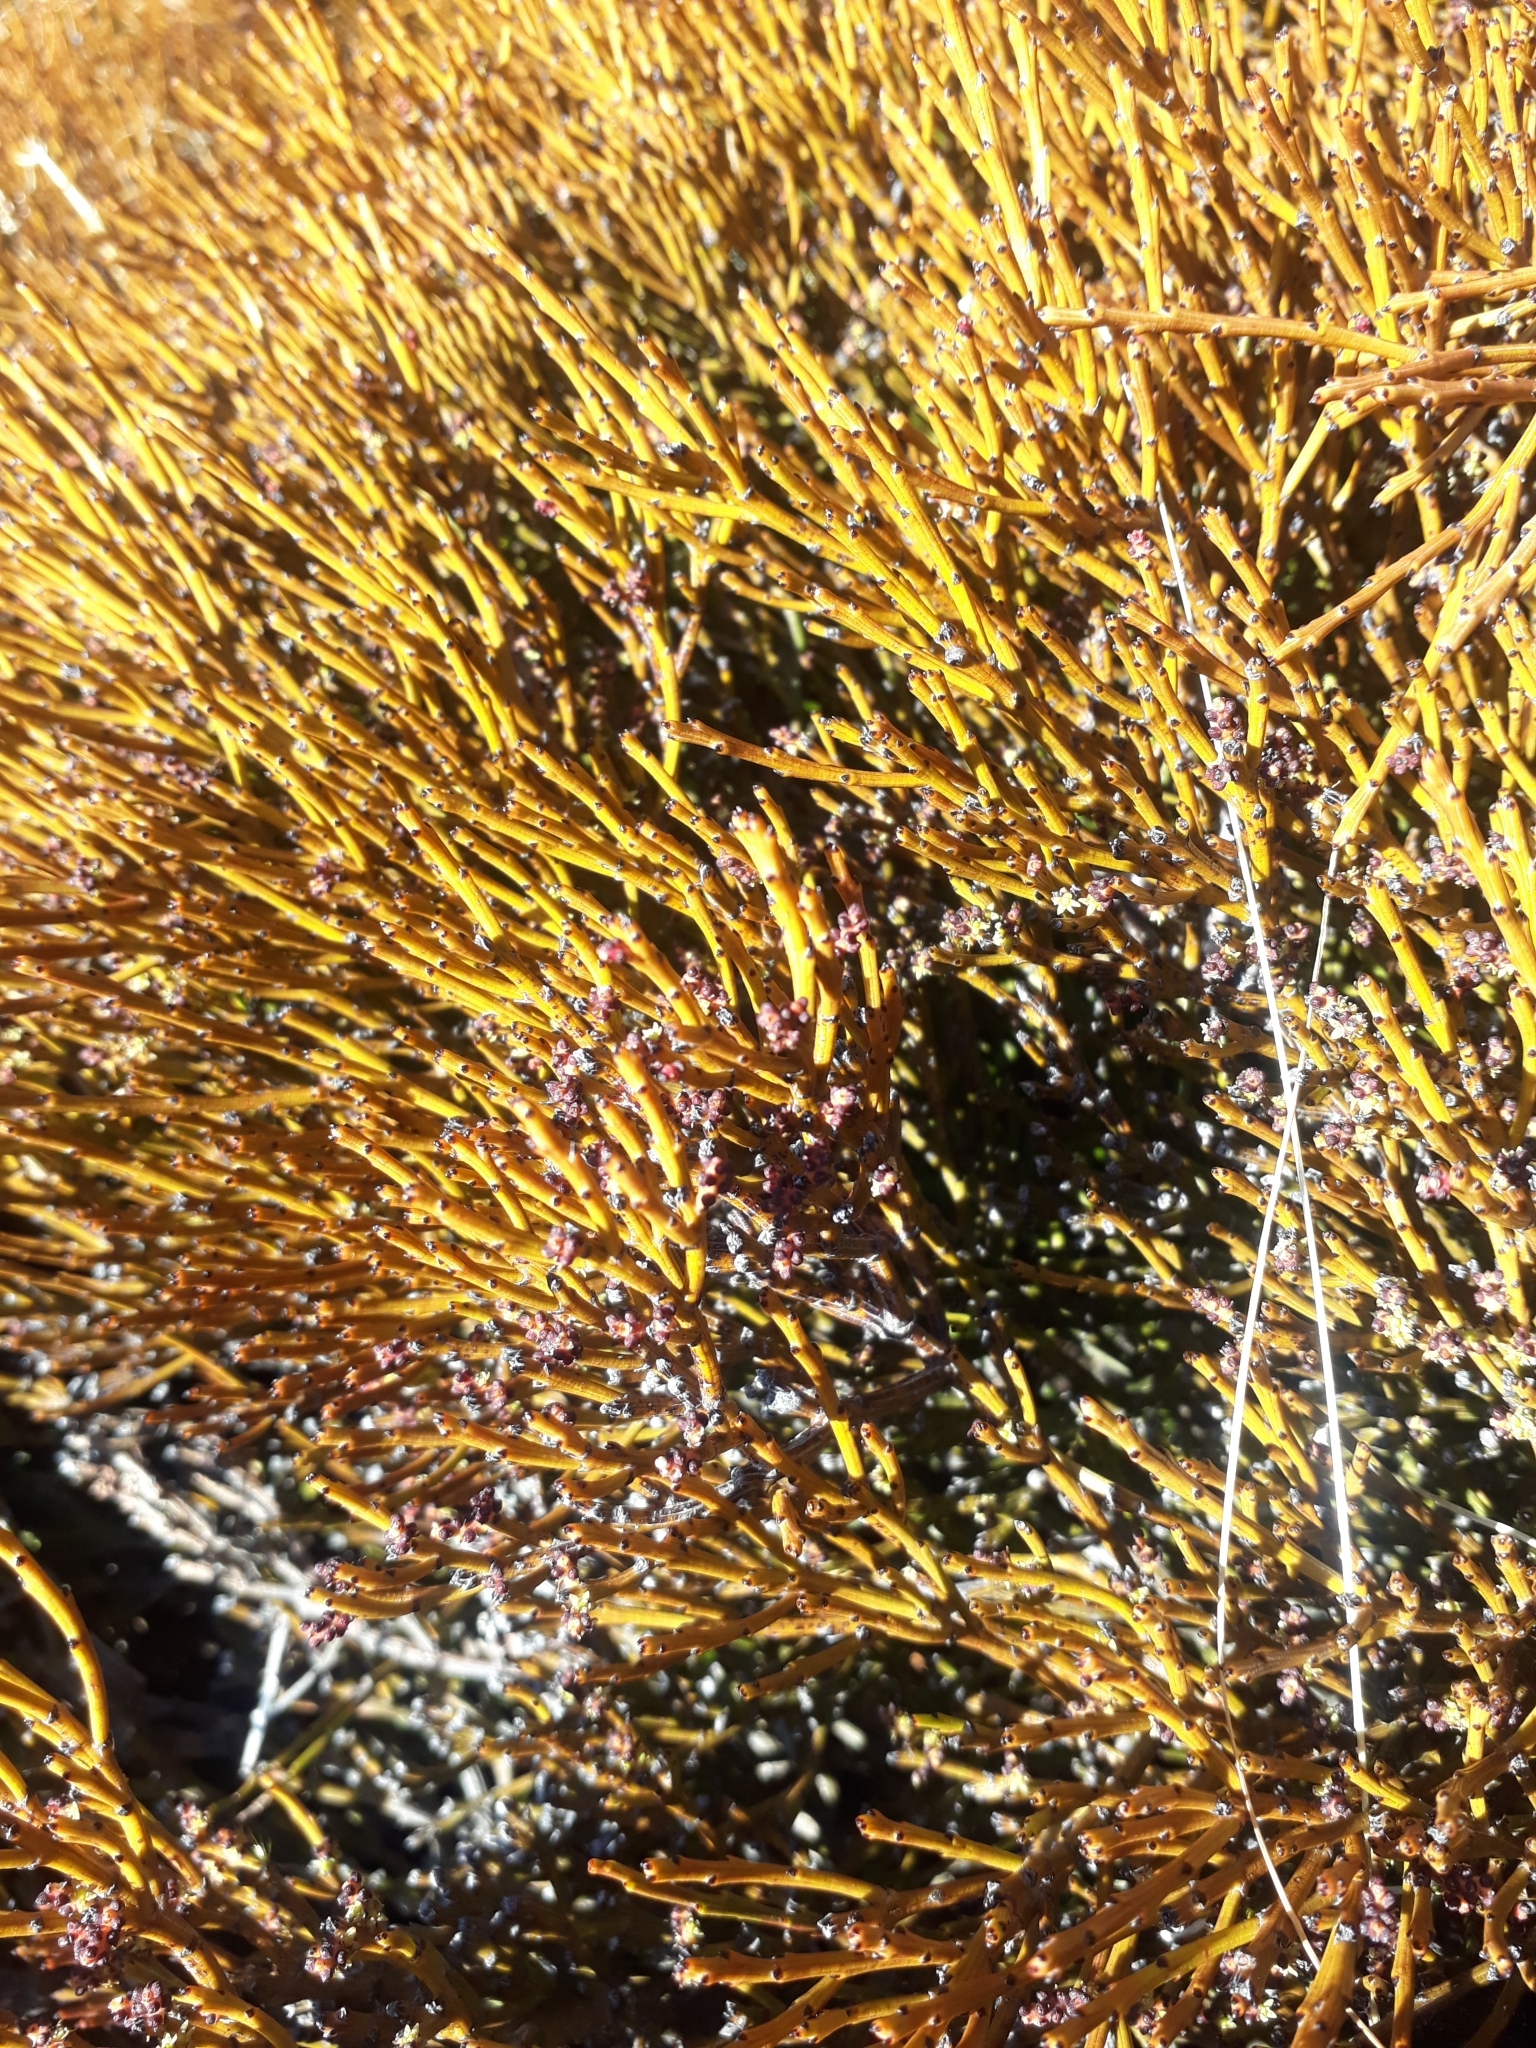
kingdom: Plantae
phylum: Tracheophyta
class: Magnoliopsida
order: Santalales
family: Santalaceae
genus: Exocarpos
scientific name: Exocarpos bidwillii
